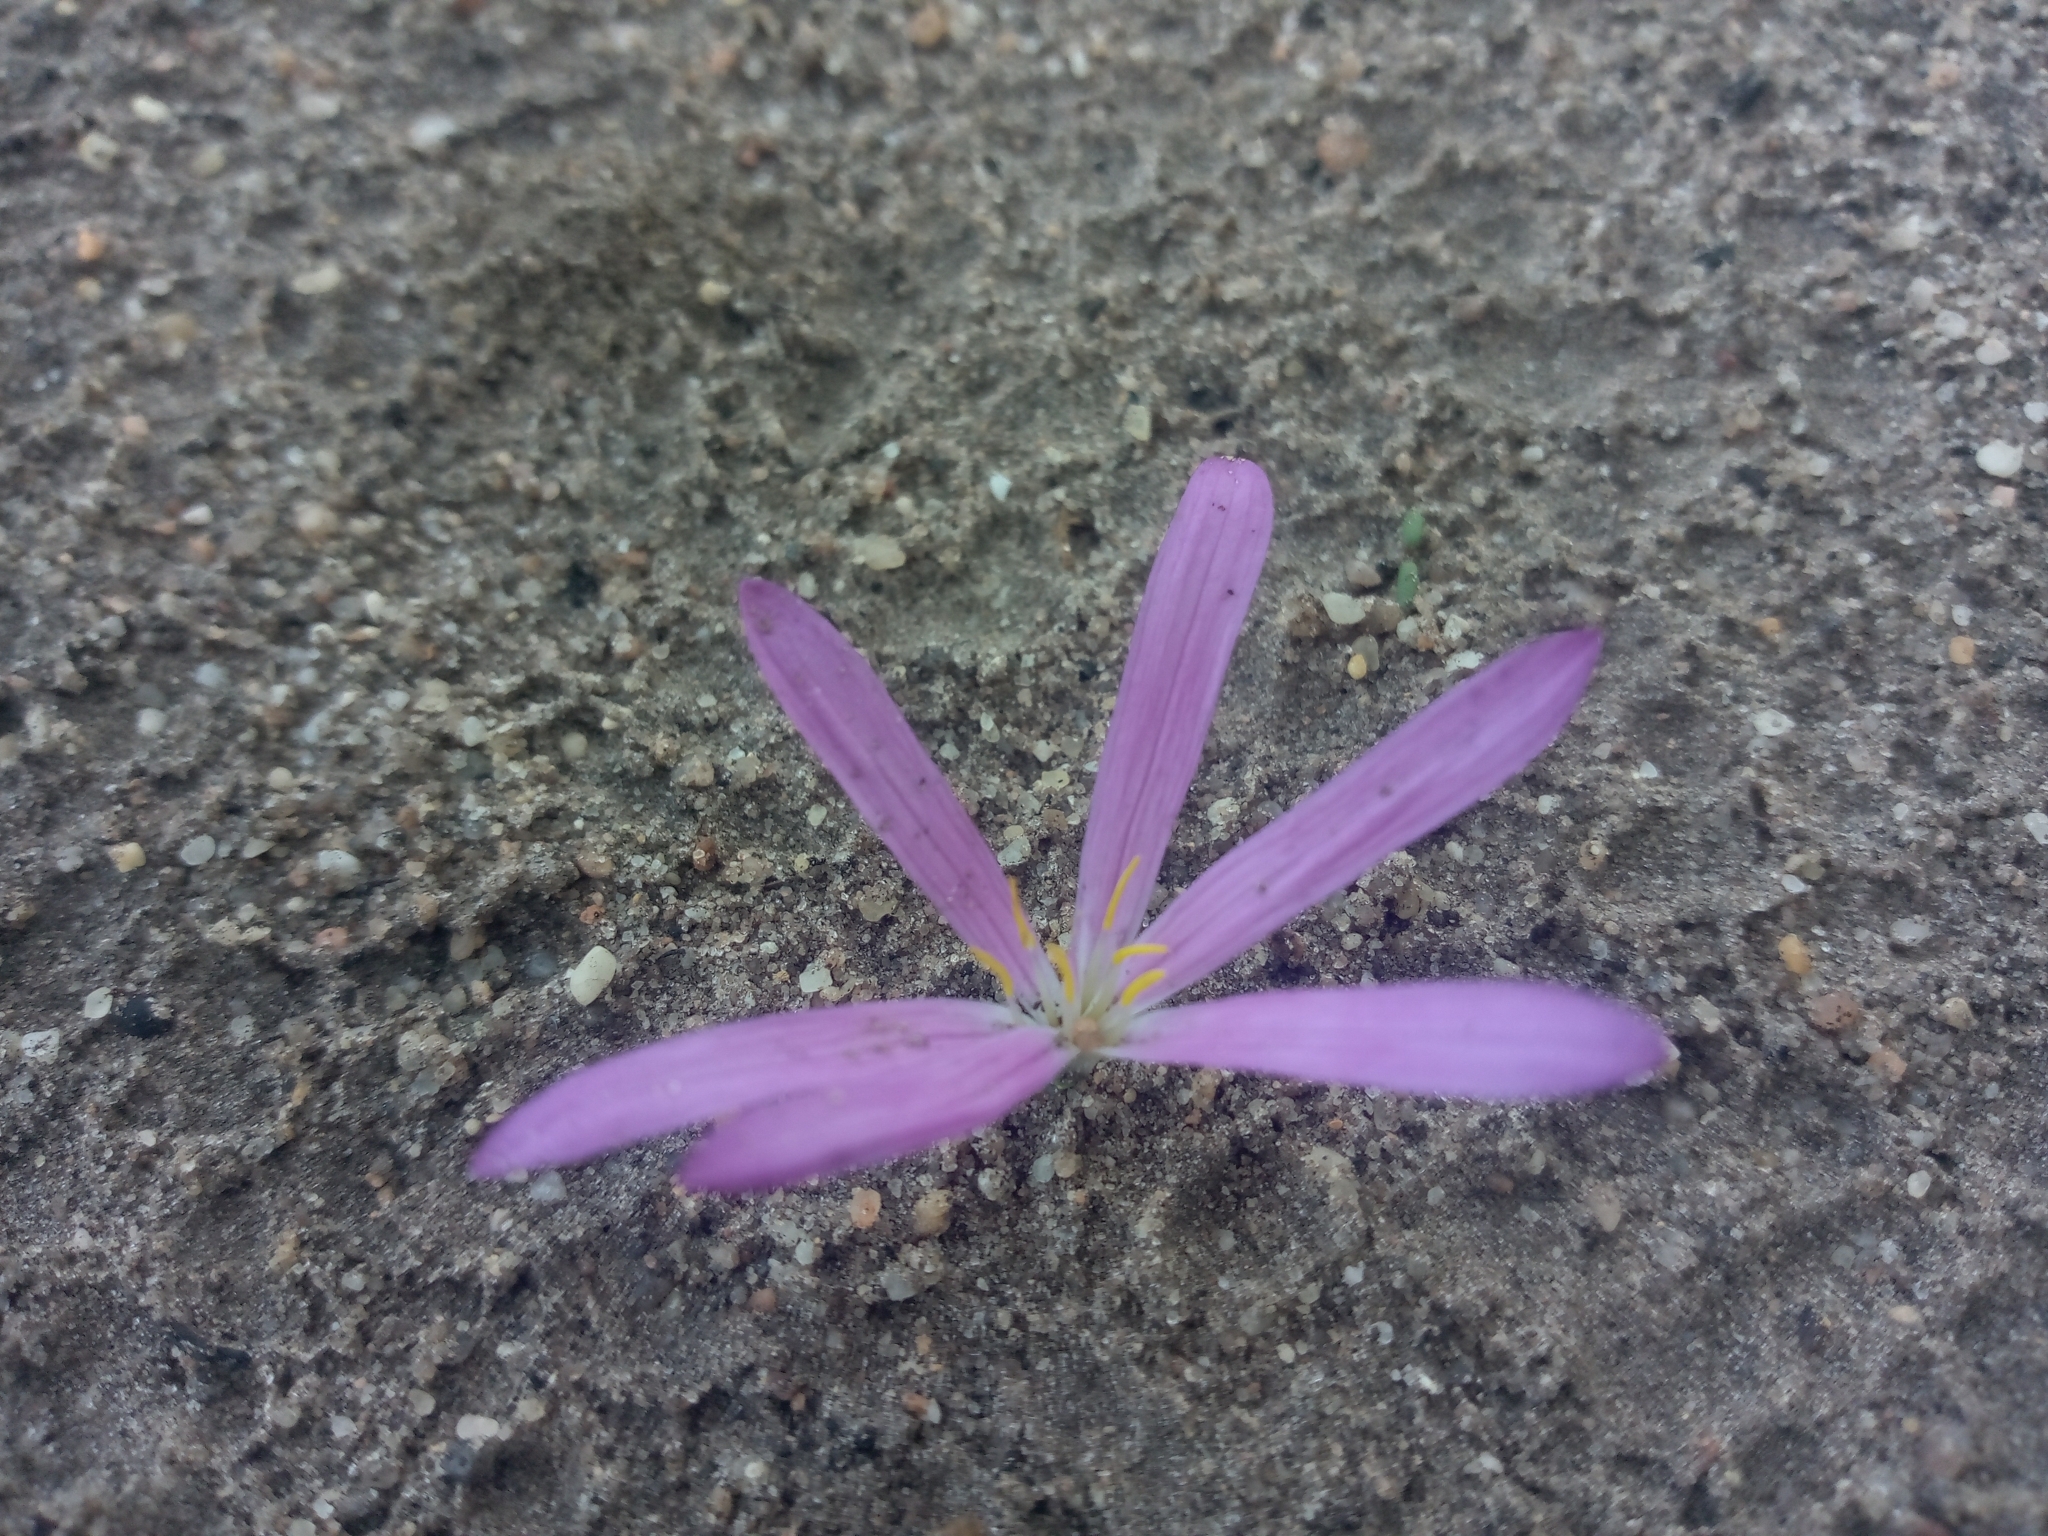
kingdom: Plantae
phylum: Tracheophyta
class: Liliopsida
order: Liliales
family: Colchicaceae
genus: Colchicum
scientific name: Colchicum filifolium
